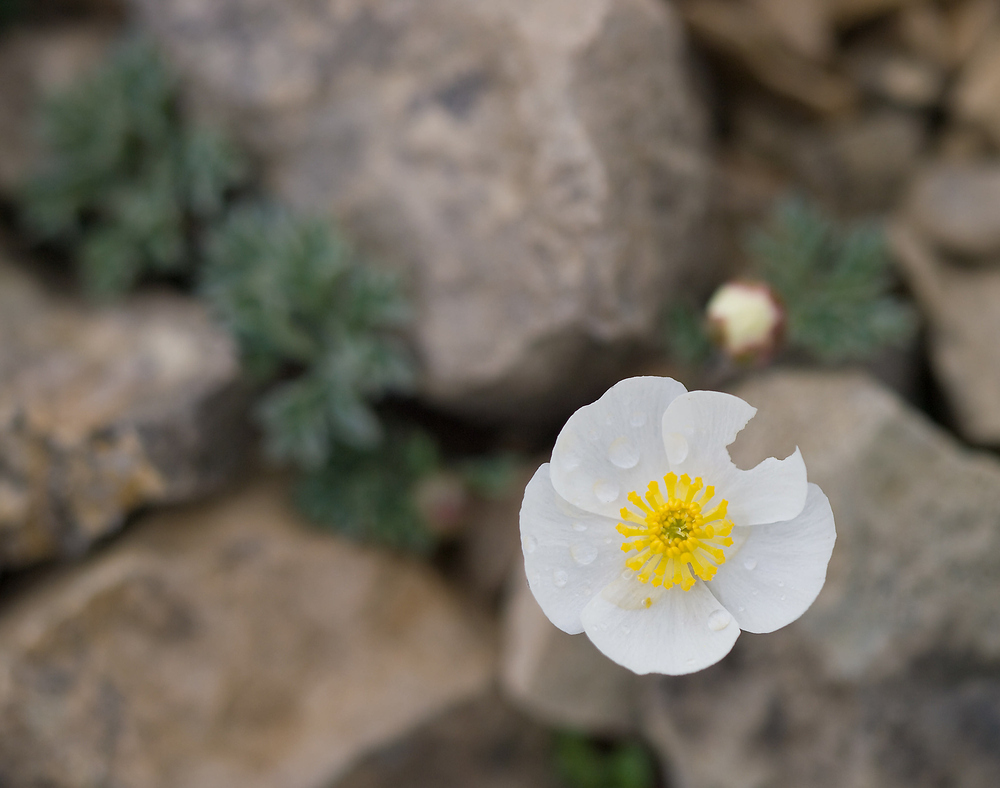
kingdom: Plantae
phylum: Tracheophyta
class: Magnoliopsida
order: Ranunculales
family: Ranunculaceae
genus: Ranunculus
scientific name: Ranunculus seguieri
